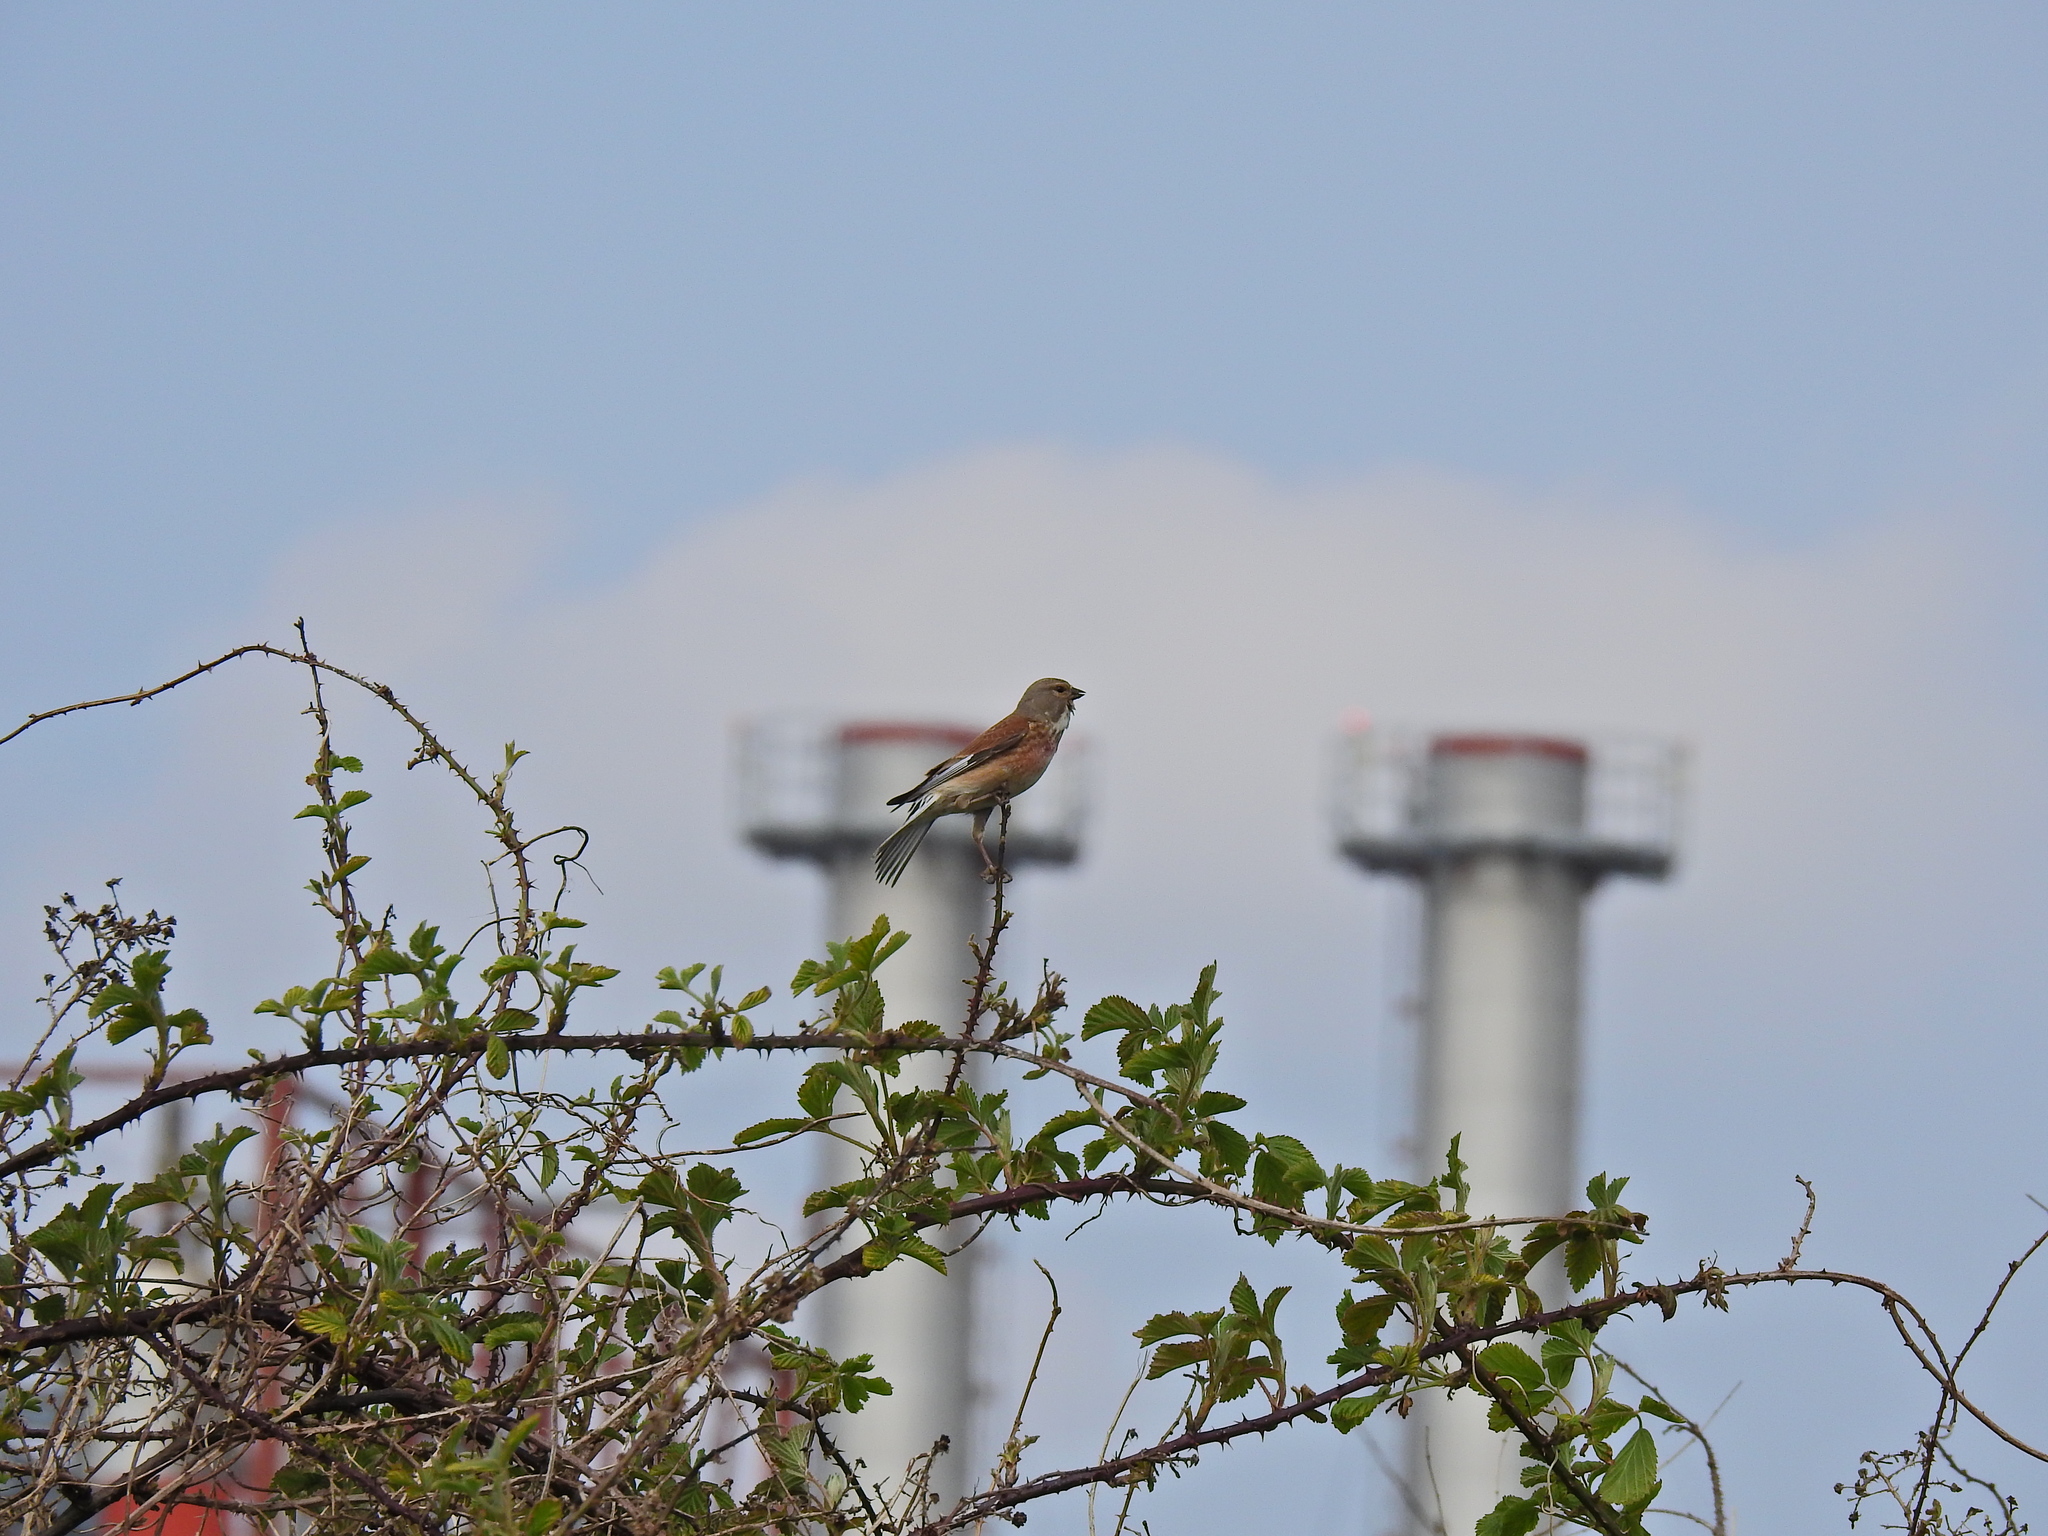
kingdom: Animalia
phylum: Chordata
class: Aves
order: Passeriformes
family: Fringillidae
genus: Linaria
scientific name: Linaria cannabina
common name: Common linnet
